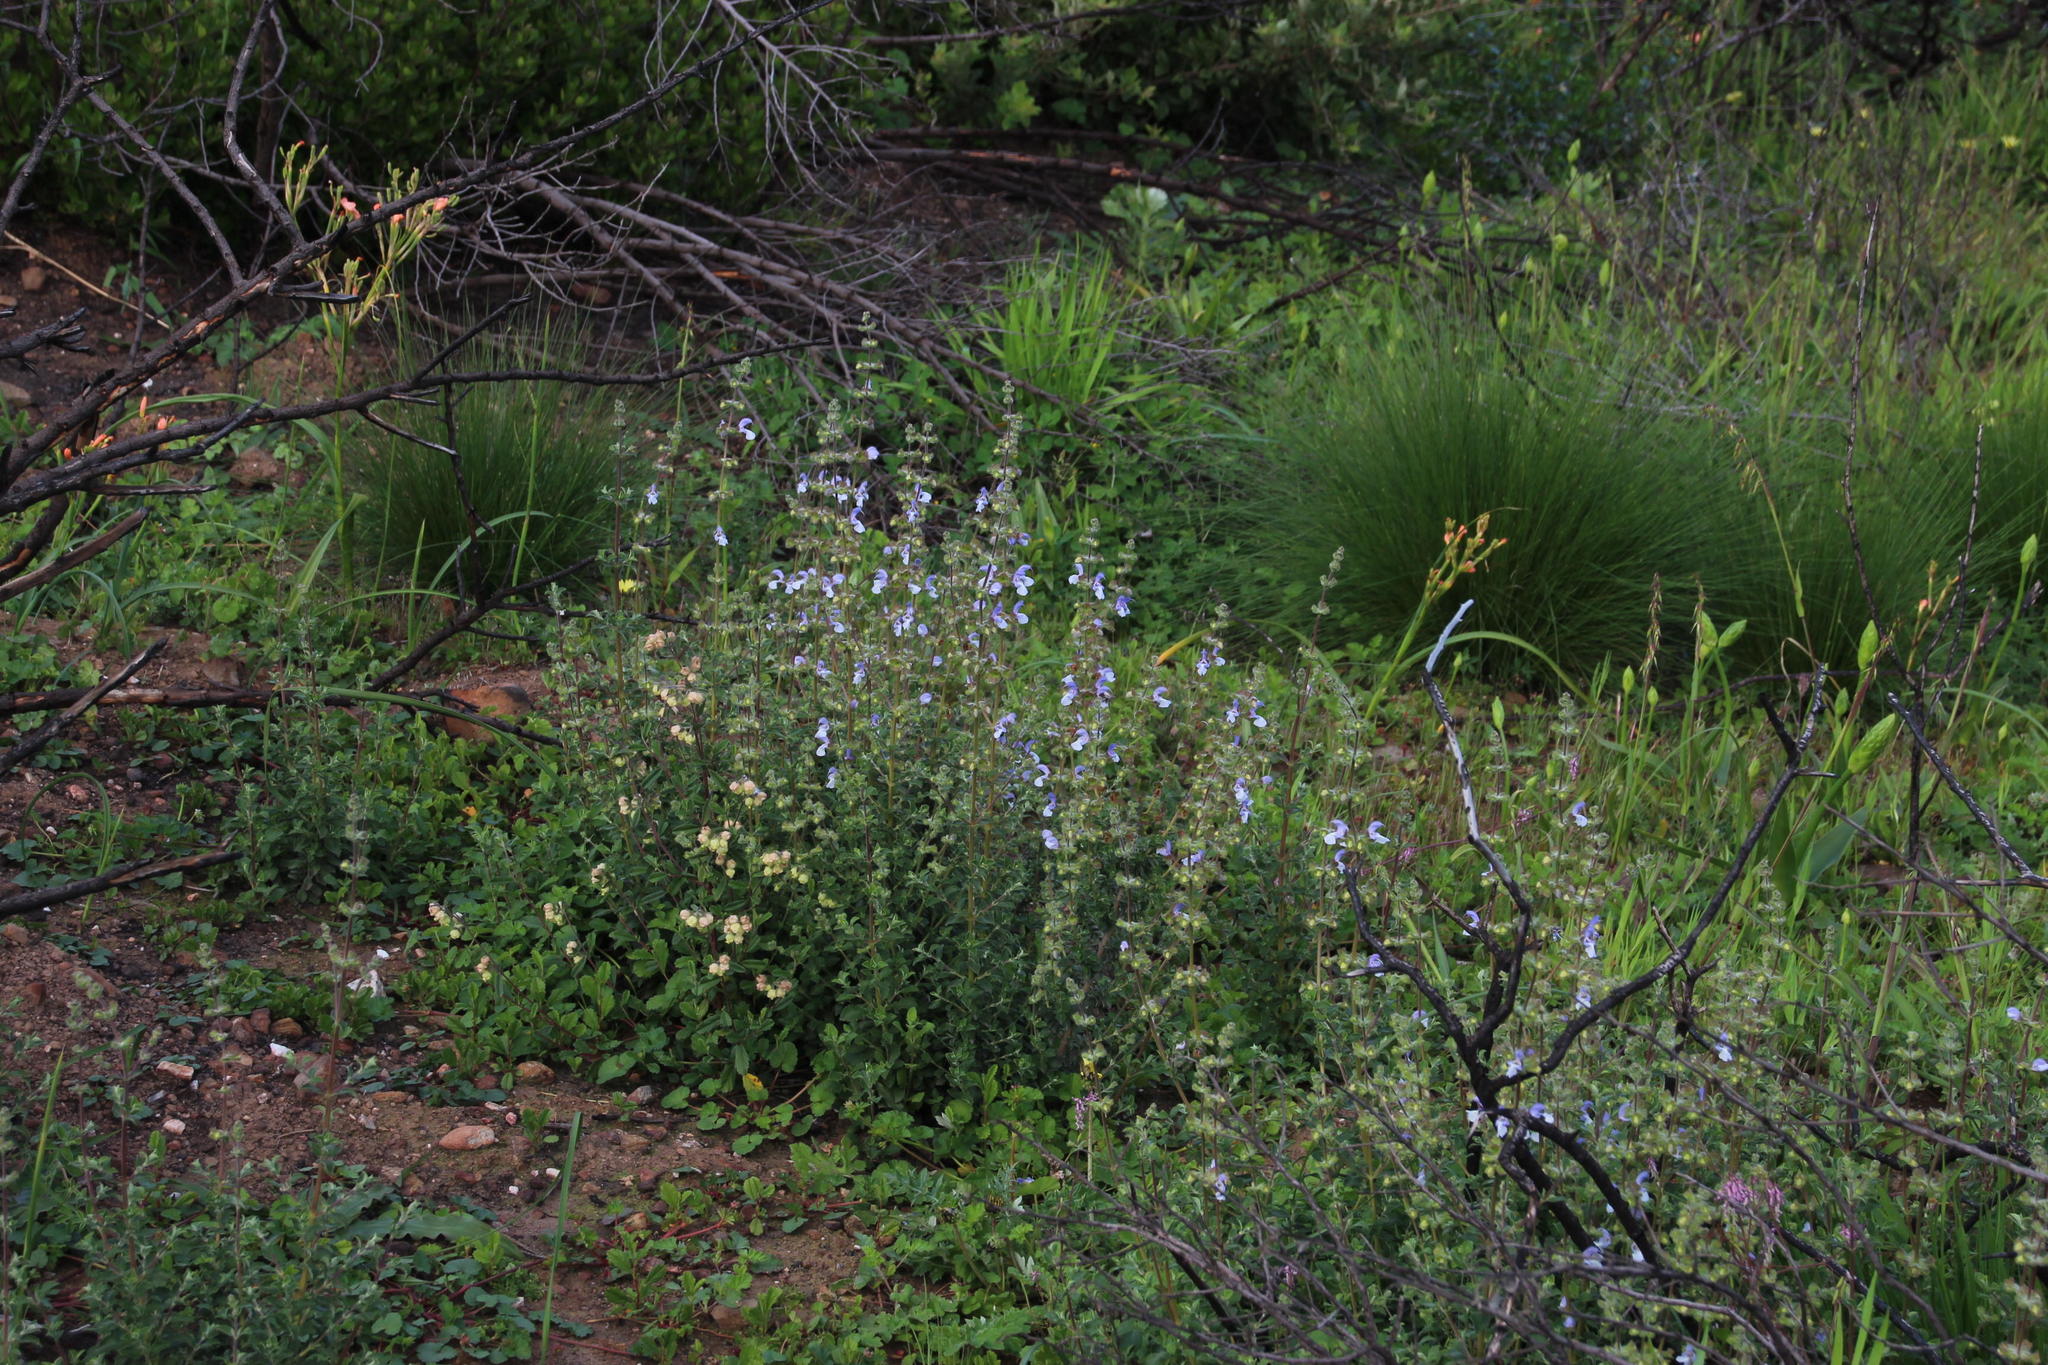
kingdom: Plantae
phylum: Tracheophyta
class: Magnoliopsida
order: Lamiales
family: Lamiaceae
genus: Salvia
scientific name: Salvia chamelaeagnea
